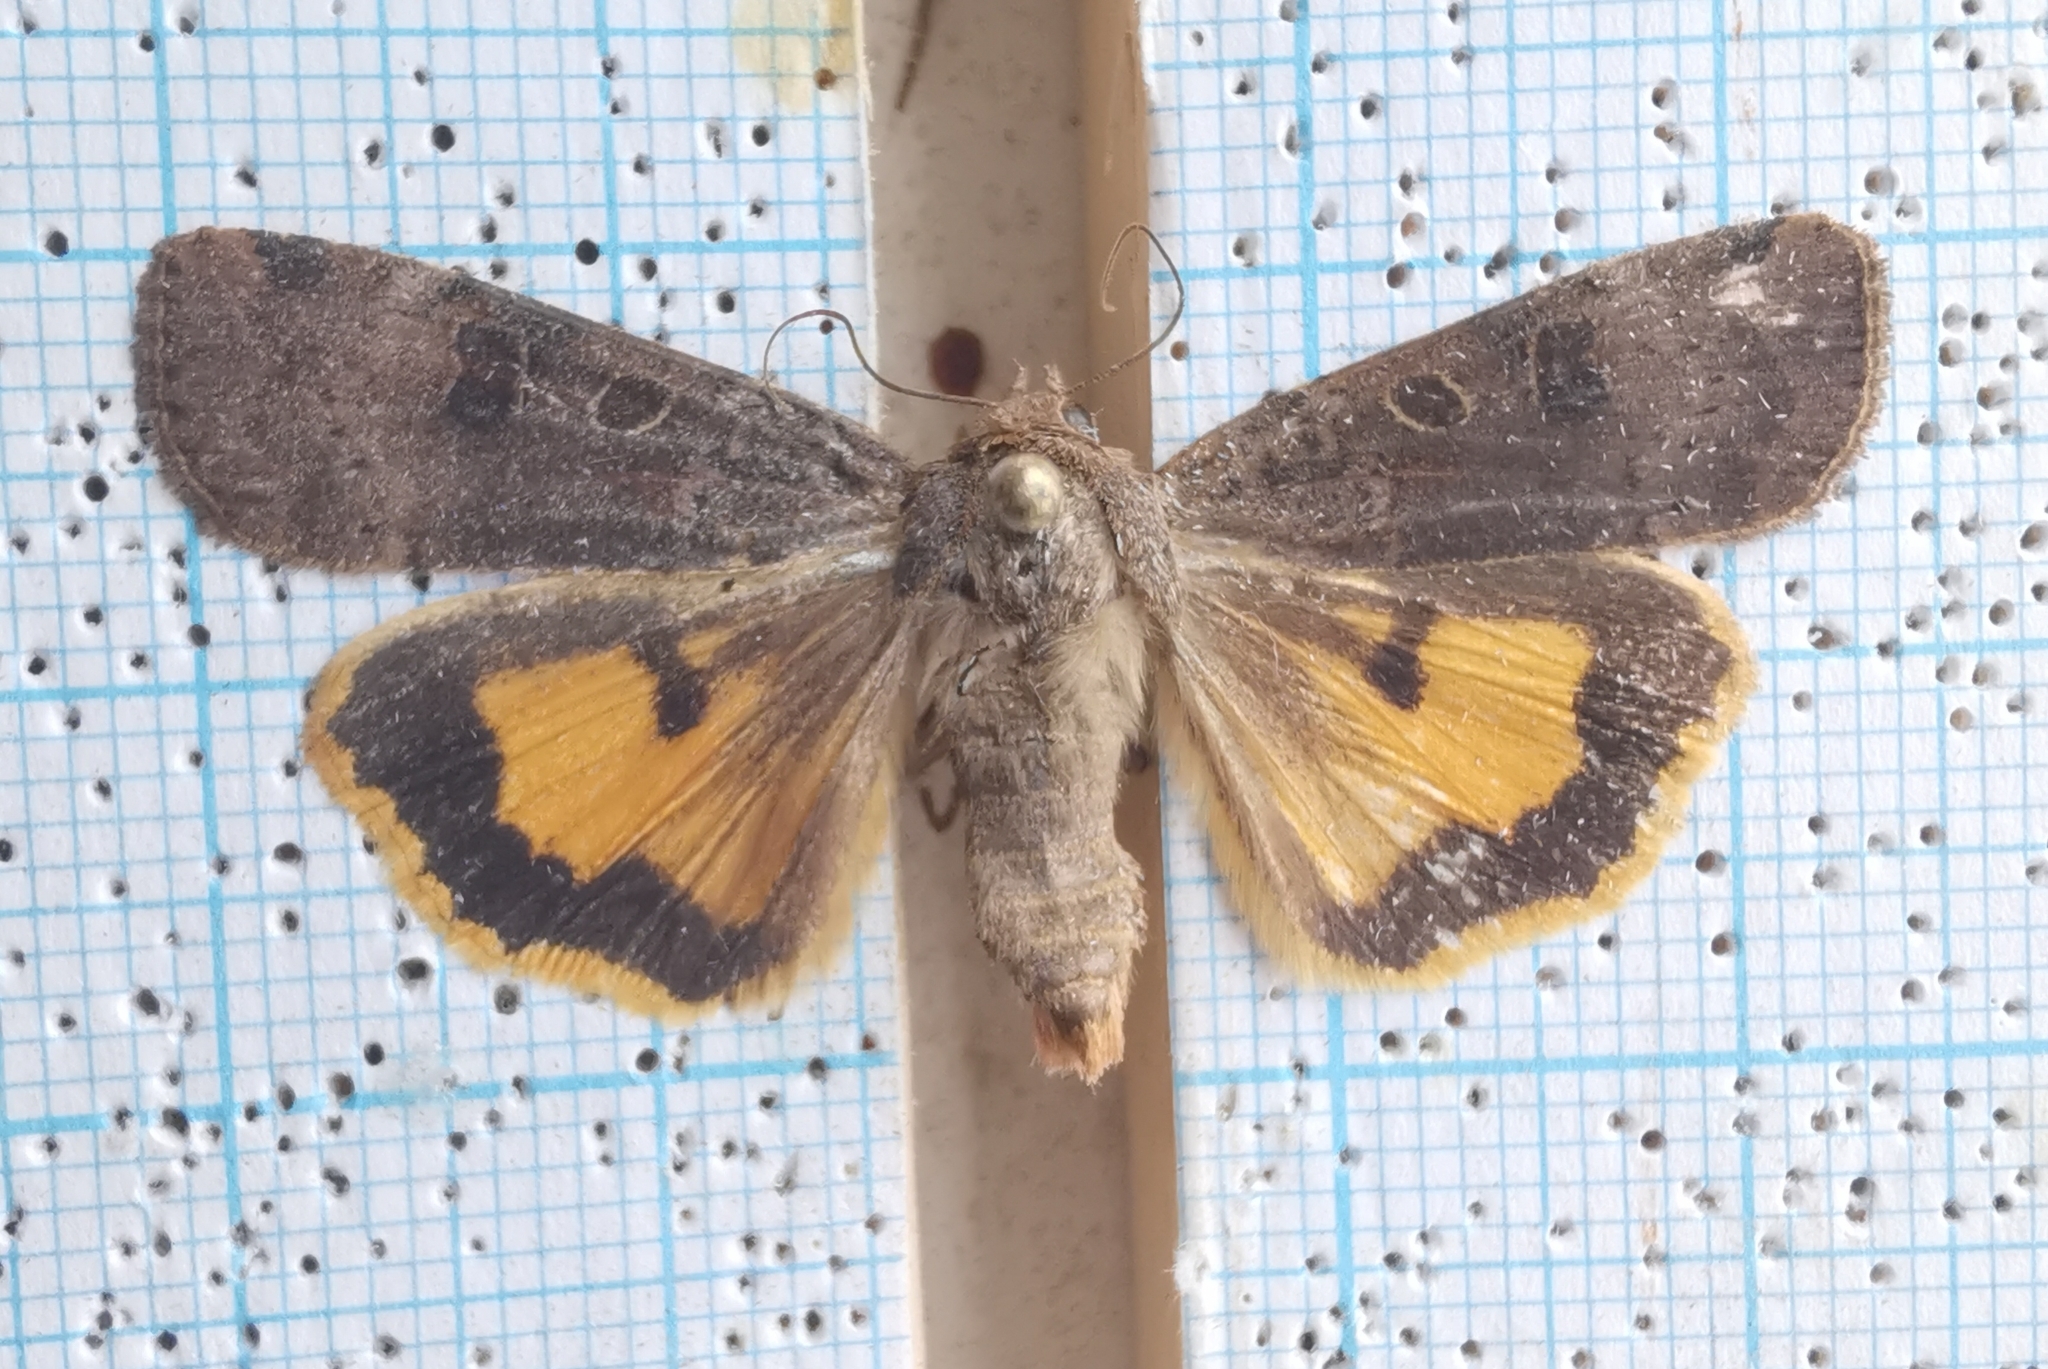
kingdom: Animalia
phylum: Arthropoda
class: Insecta
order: Lepidoptera
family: Noctuidae
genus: Noctua
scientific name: Noctua interposita
